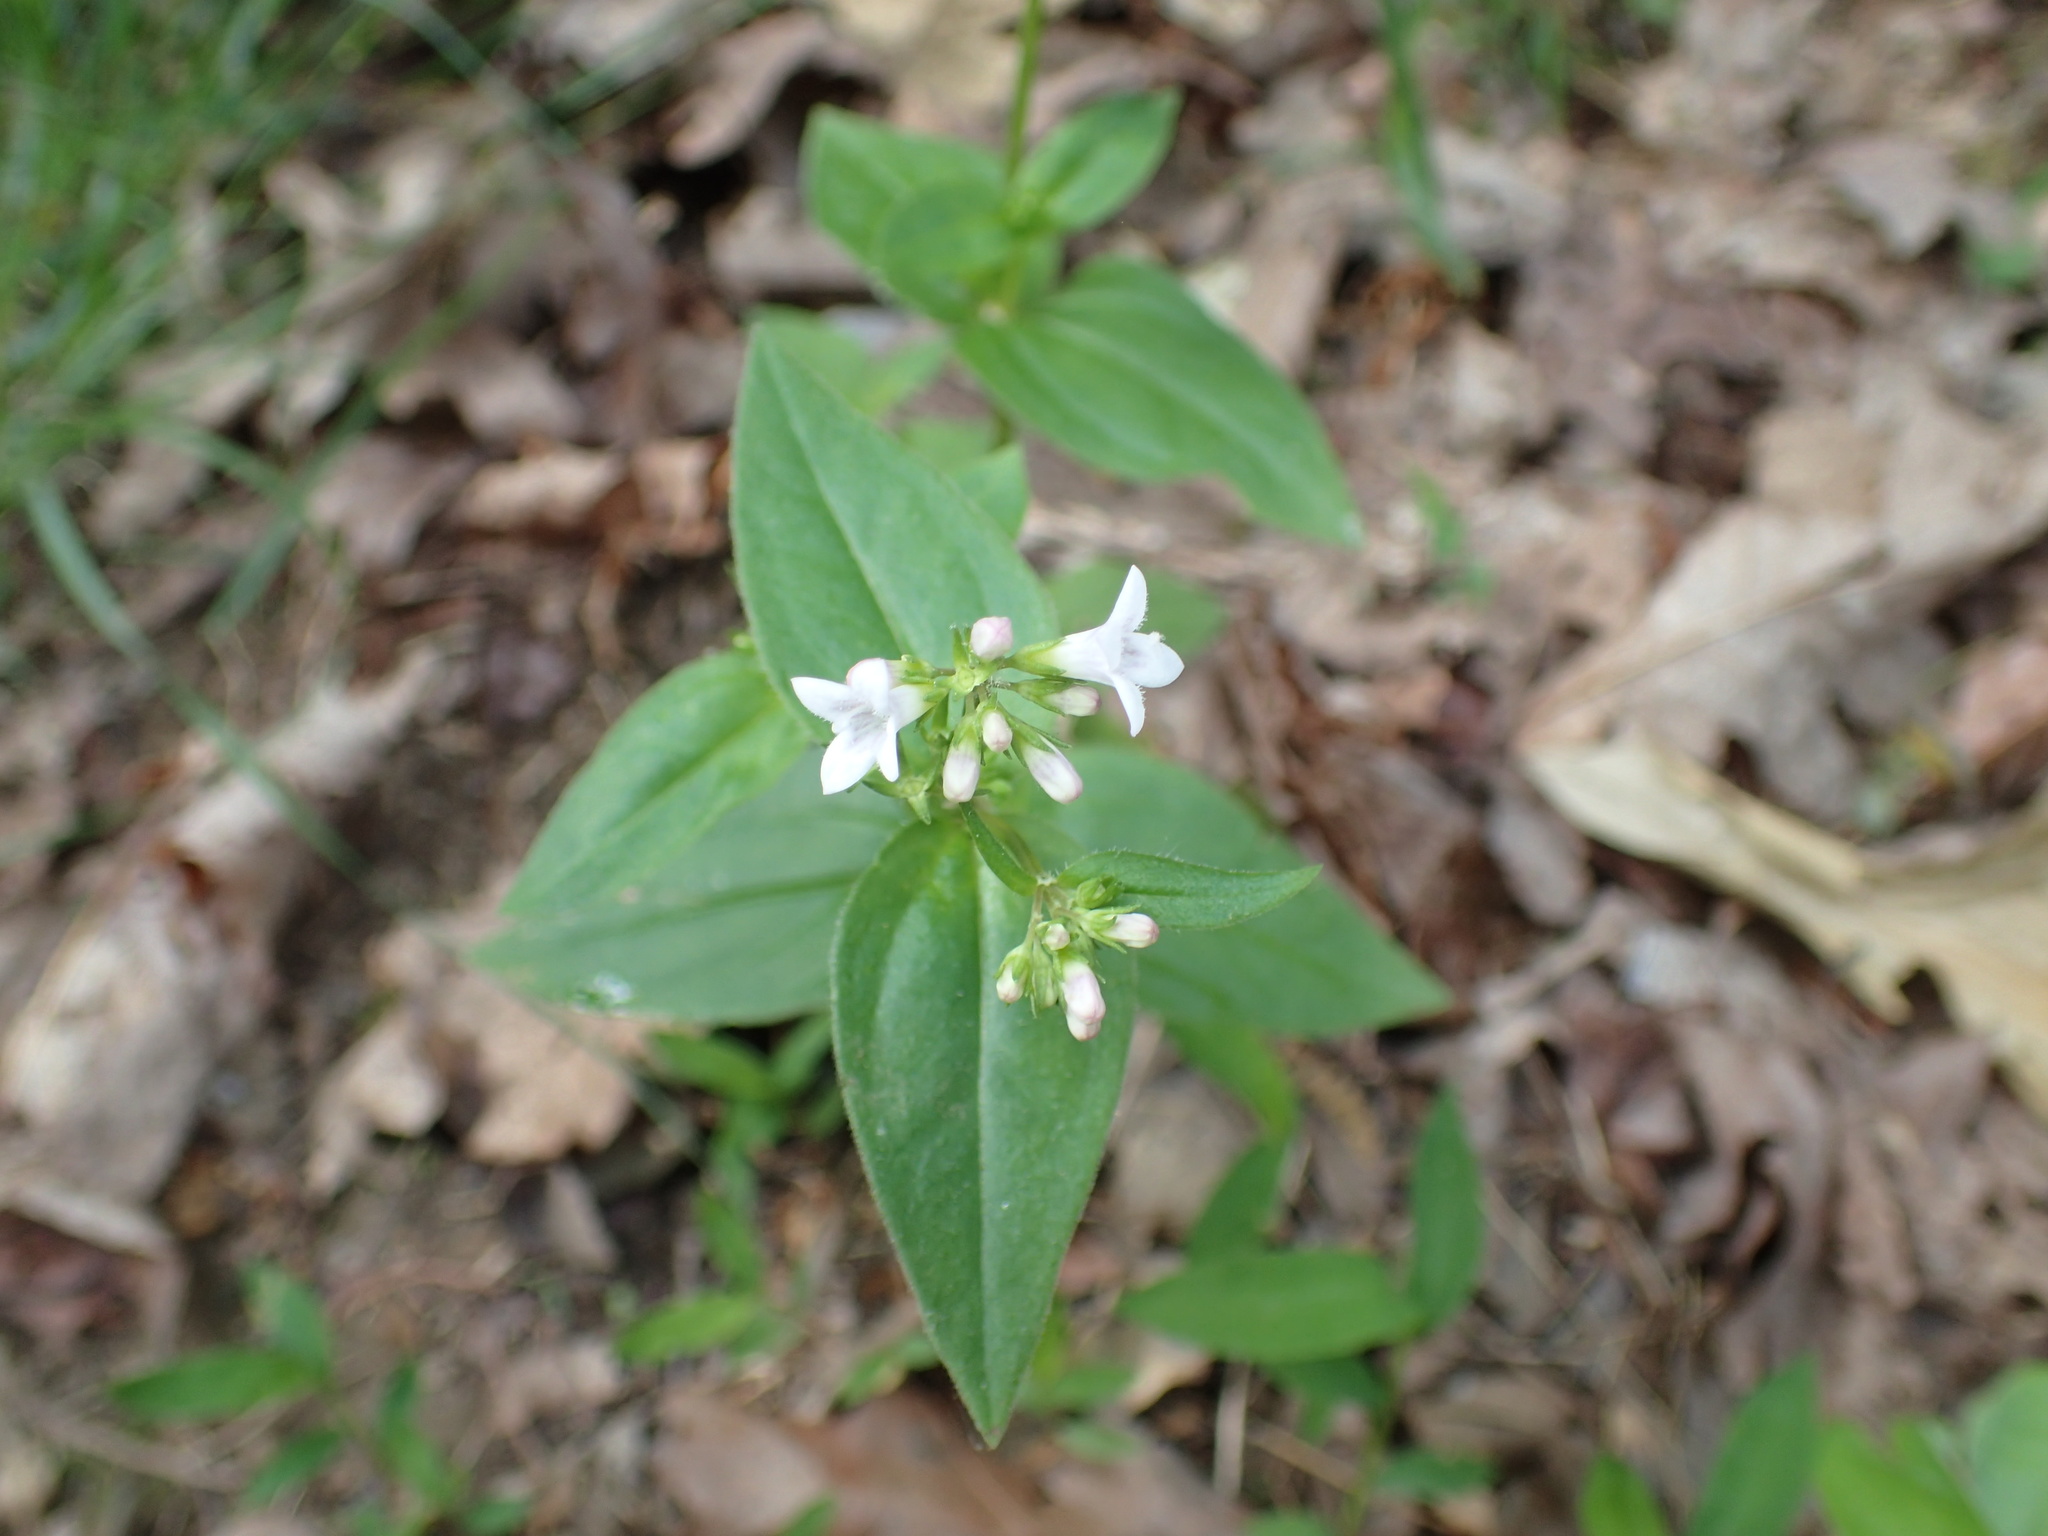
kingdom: Plantae
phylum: Tracheophyta
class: Magnoliopsida
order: Gentianales
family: Rubiaceae
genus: Houstonia
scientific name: Houstonia purpurea
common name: Summer bluet
